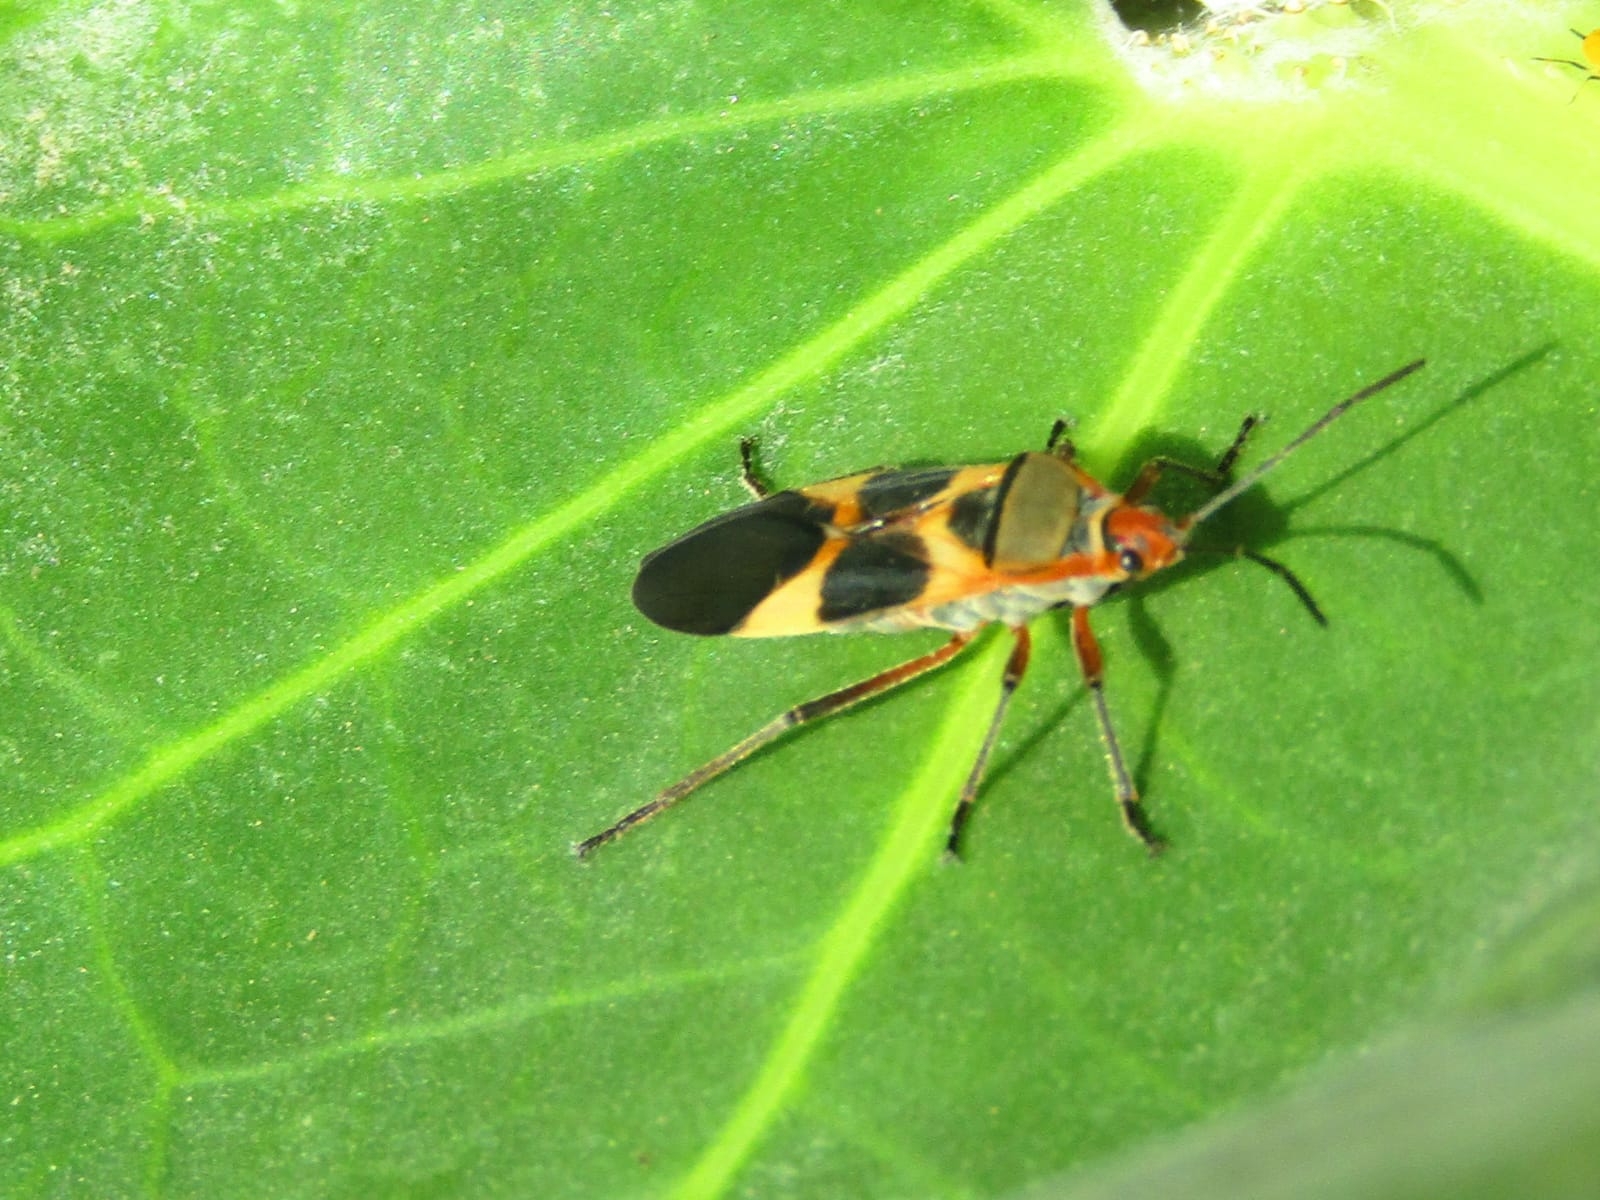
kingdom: Animalia
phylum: Arthropoda
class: Insecta
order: Hemiptera
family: Lygaeidae
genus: Oncopeltus
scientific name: Oncopeltus unifasciatellus
